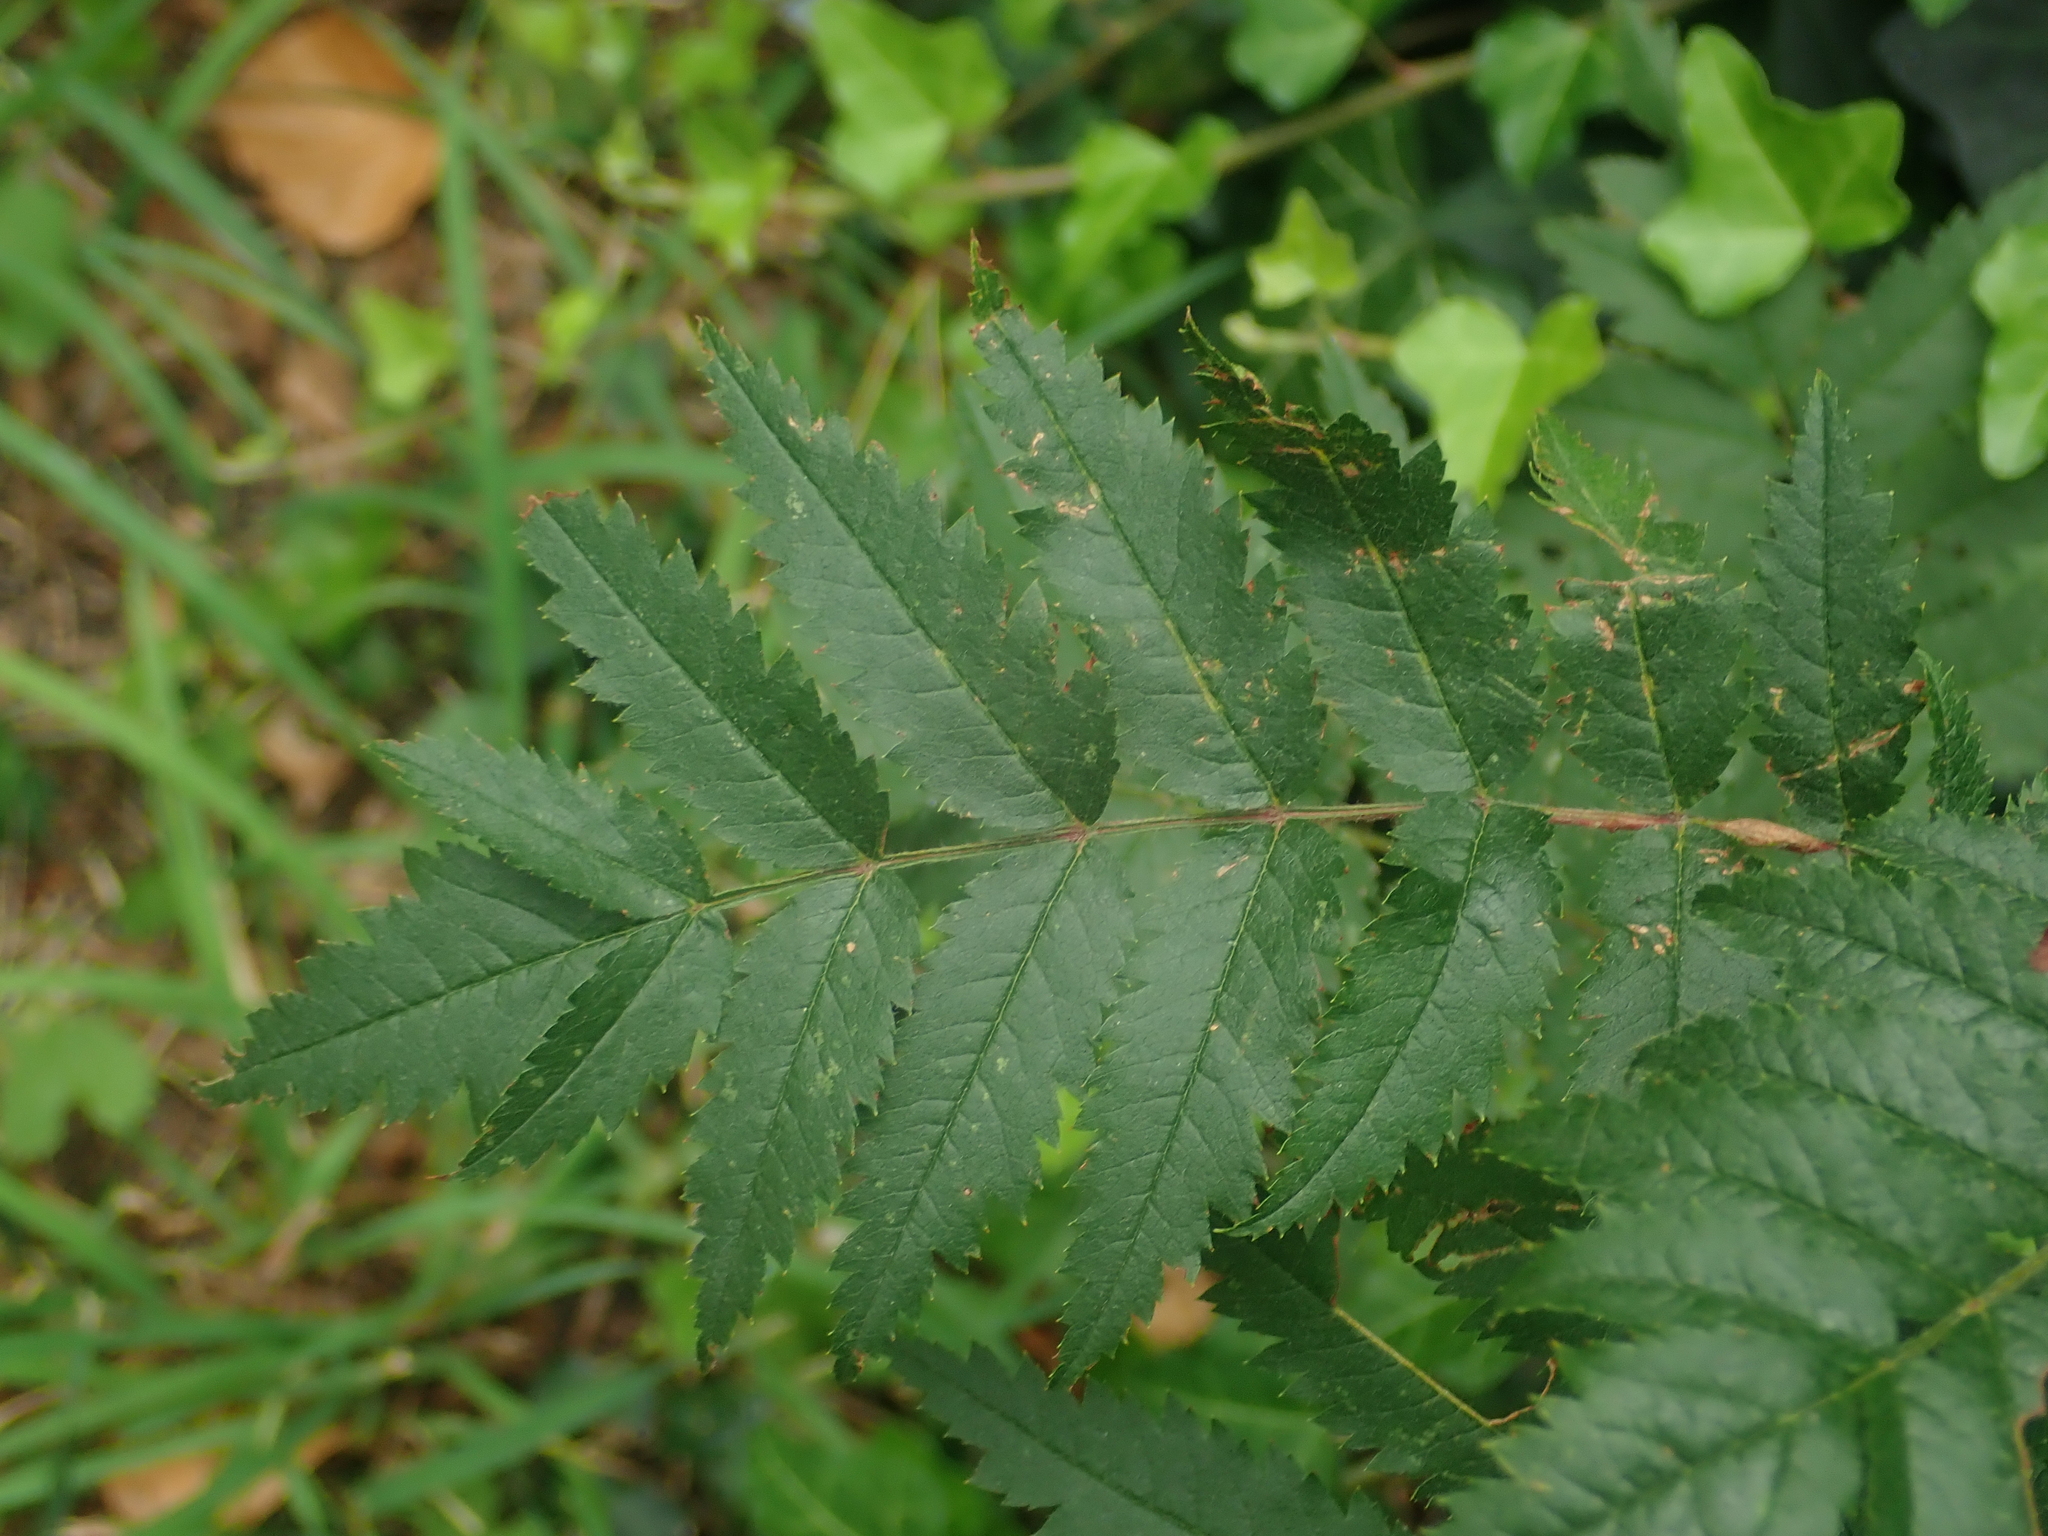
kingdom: Plantae
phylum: Tracheophyta
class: Magnoliopsida
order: Rosales
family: Rosaceae
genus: Sorbus
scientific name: Sorbus aucuparia
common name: Rowan
